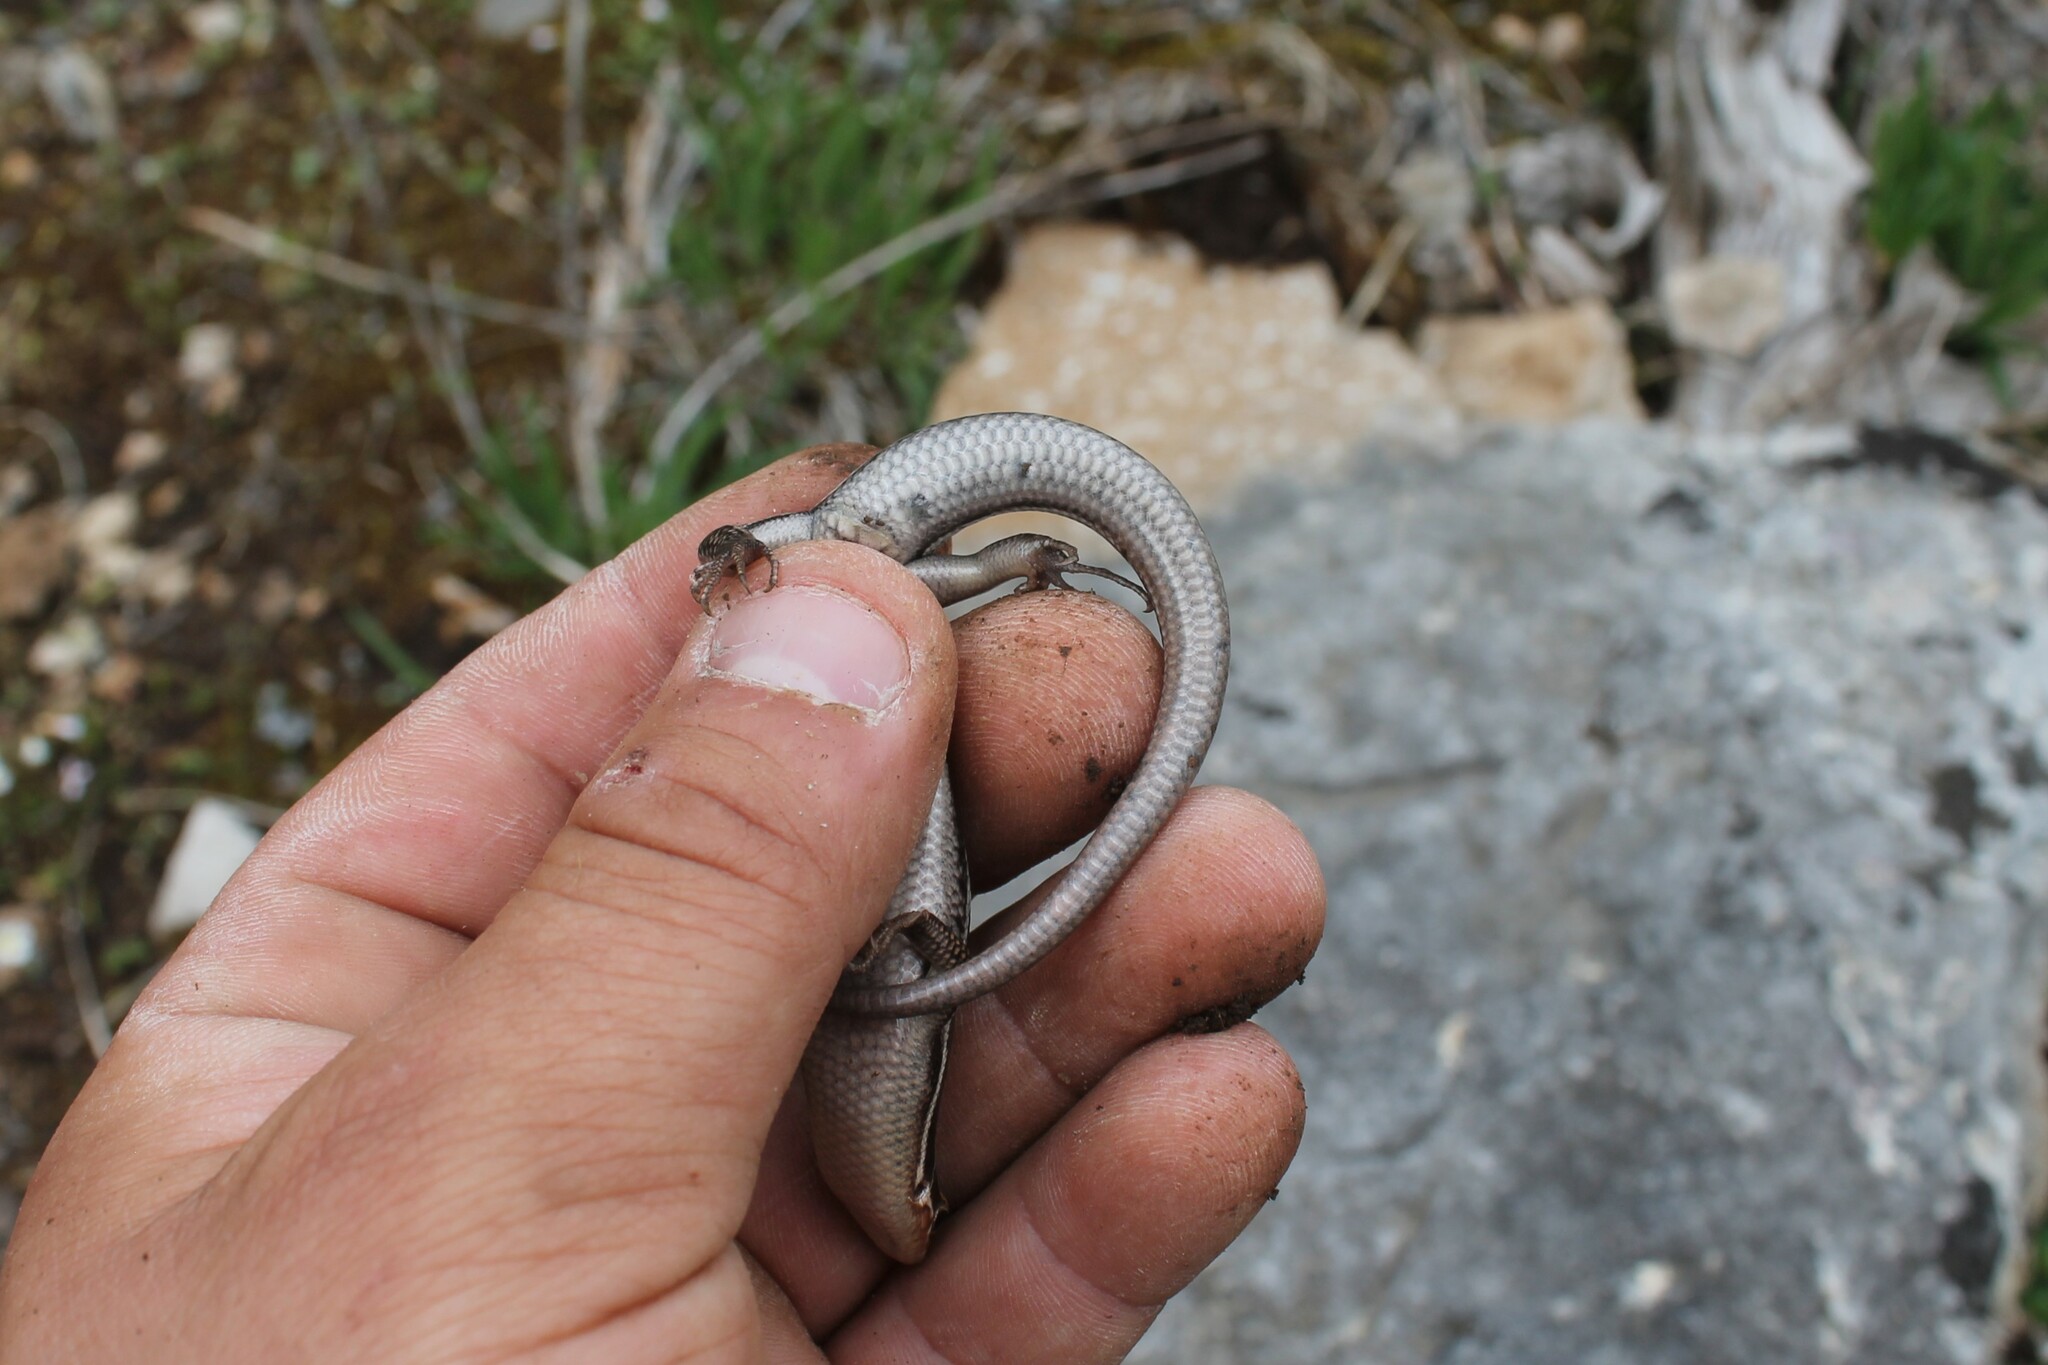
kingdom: Animalia
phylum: Chordata
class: Squamata
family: Scincidae
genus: Plestiodon
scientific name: Plestiodon inexpectatus
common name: Southeastern five-lined skink
